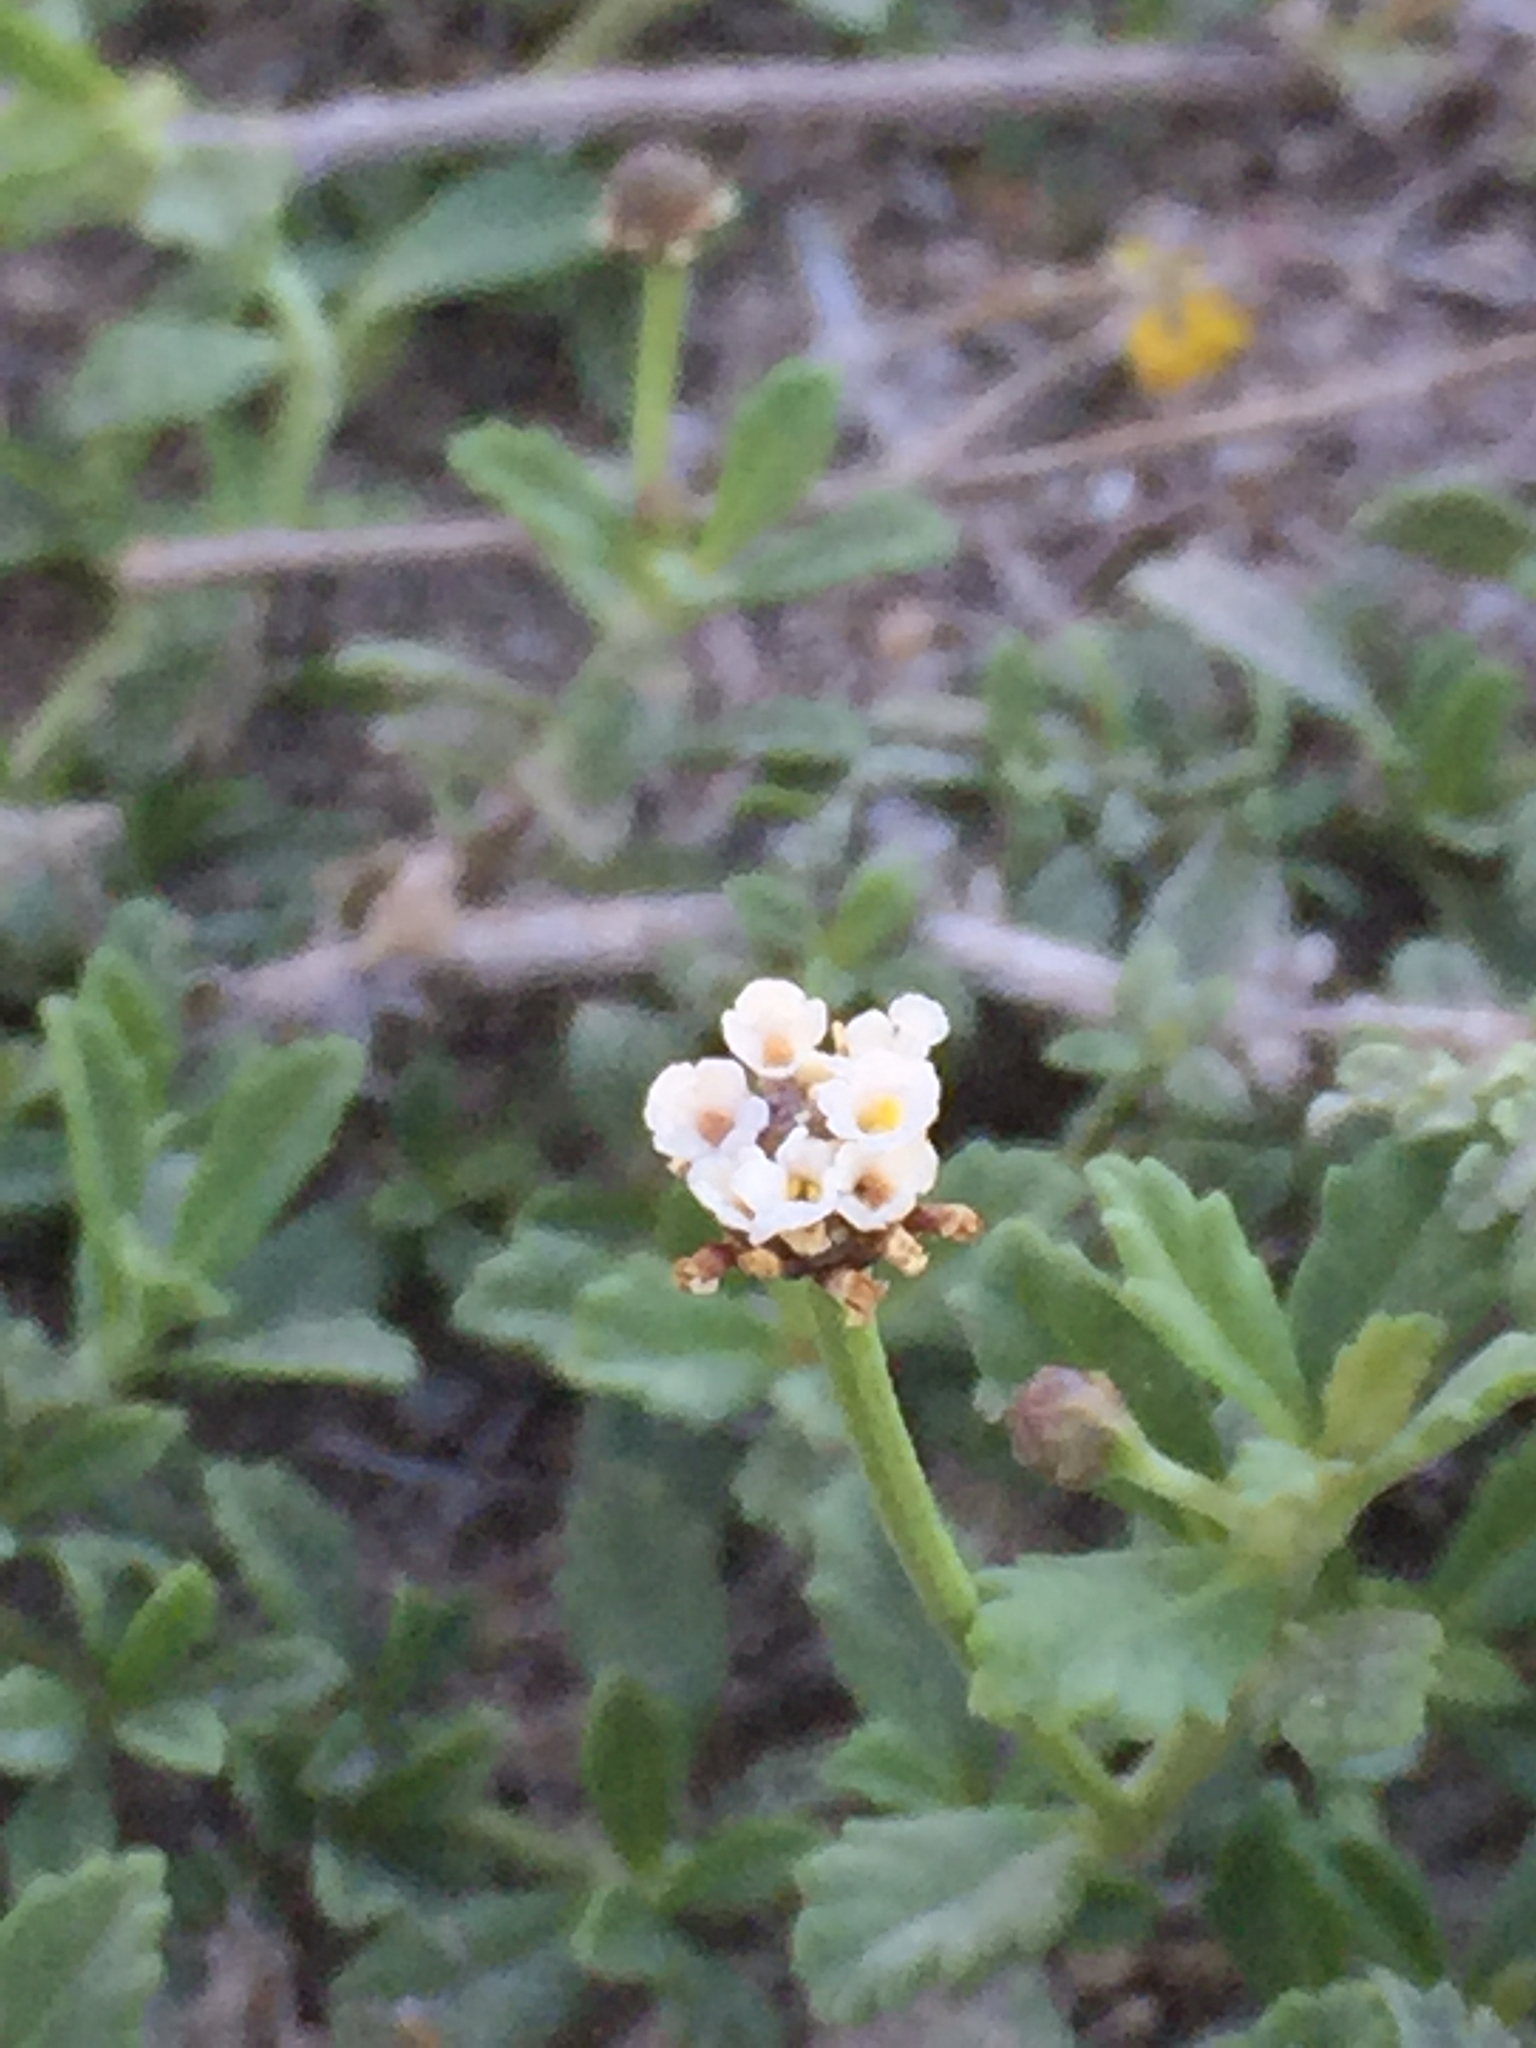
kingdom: Plantae
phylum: Tracheophyta
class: Magnoliopsida
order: Lamiales
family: Verbenaceae
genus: Phyla
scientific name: Phyla nodiflora
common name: Frogfruit
